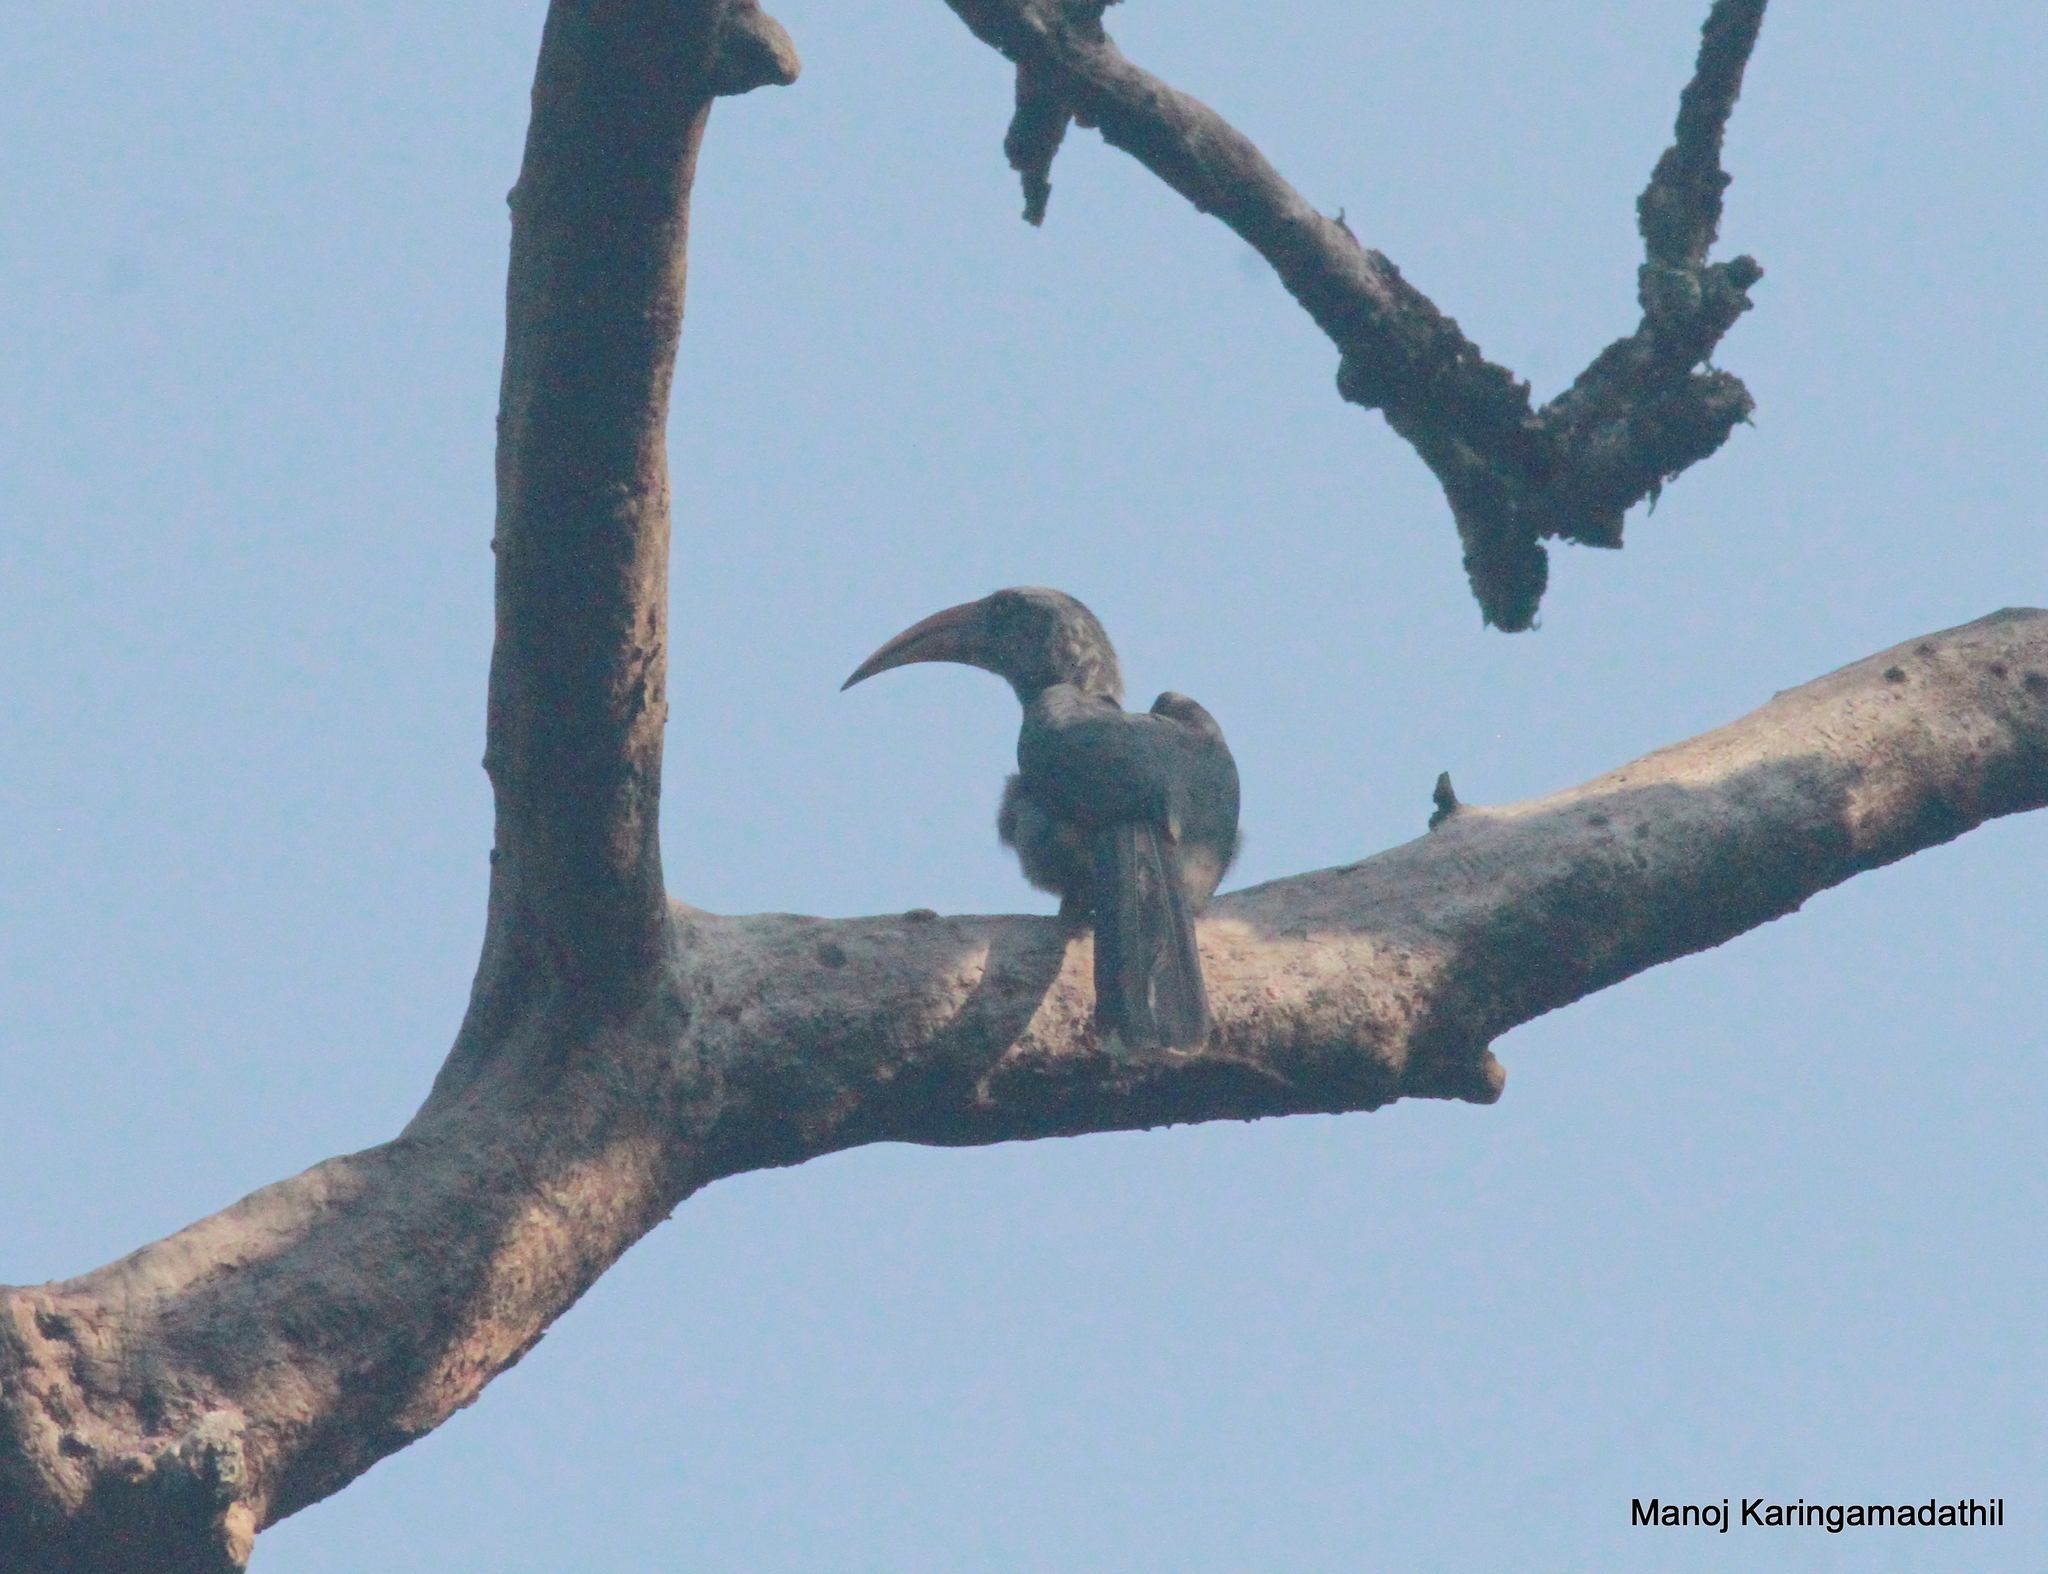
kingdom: Animalia
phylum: Chordata
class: Aves
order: Bucerotiformes
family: Bucerotidae
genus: Ocyceros
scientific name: Ocyceros griseus
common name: Malabar grey hornbill
